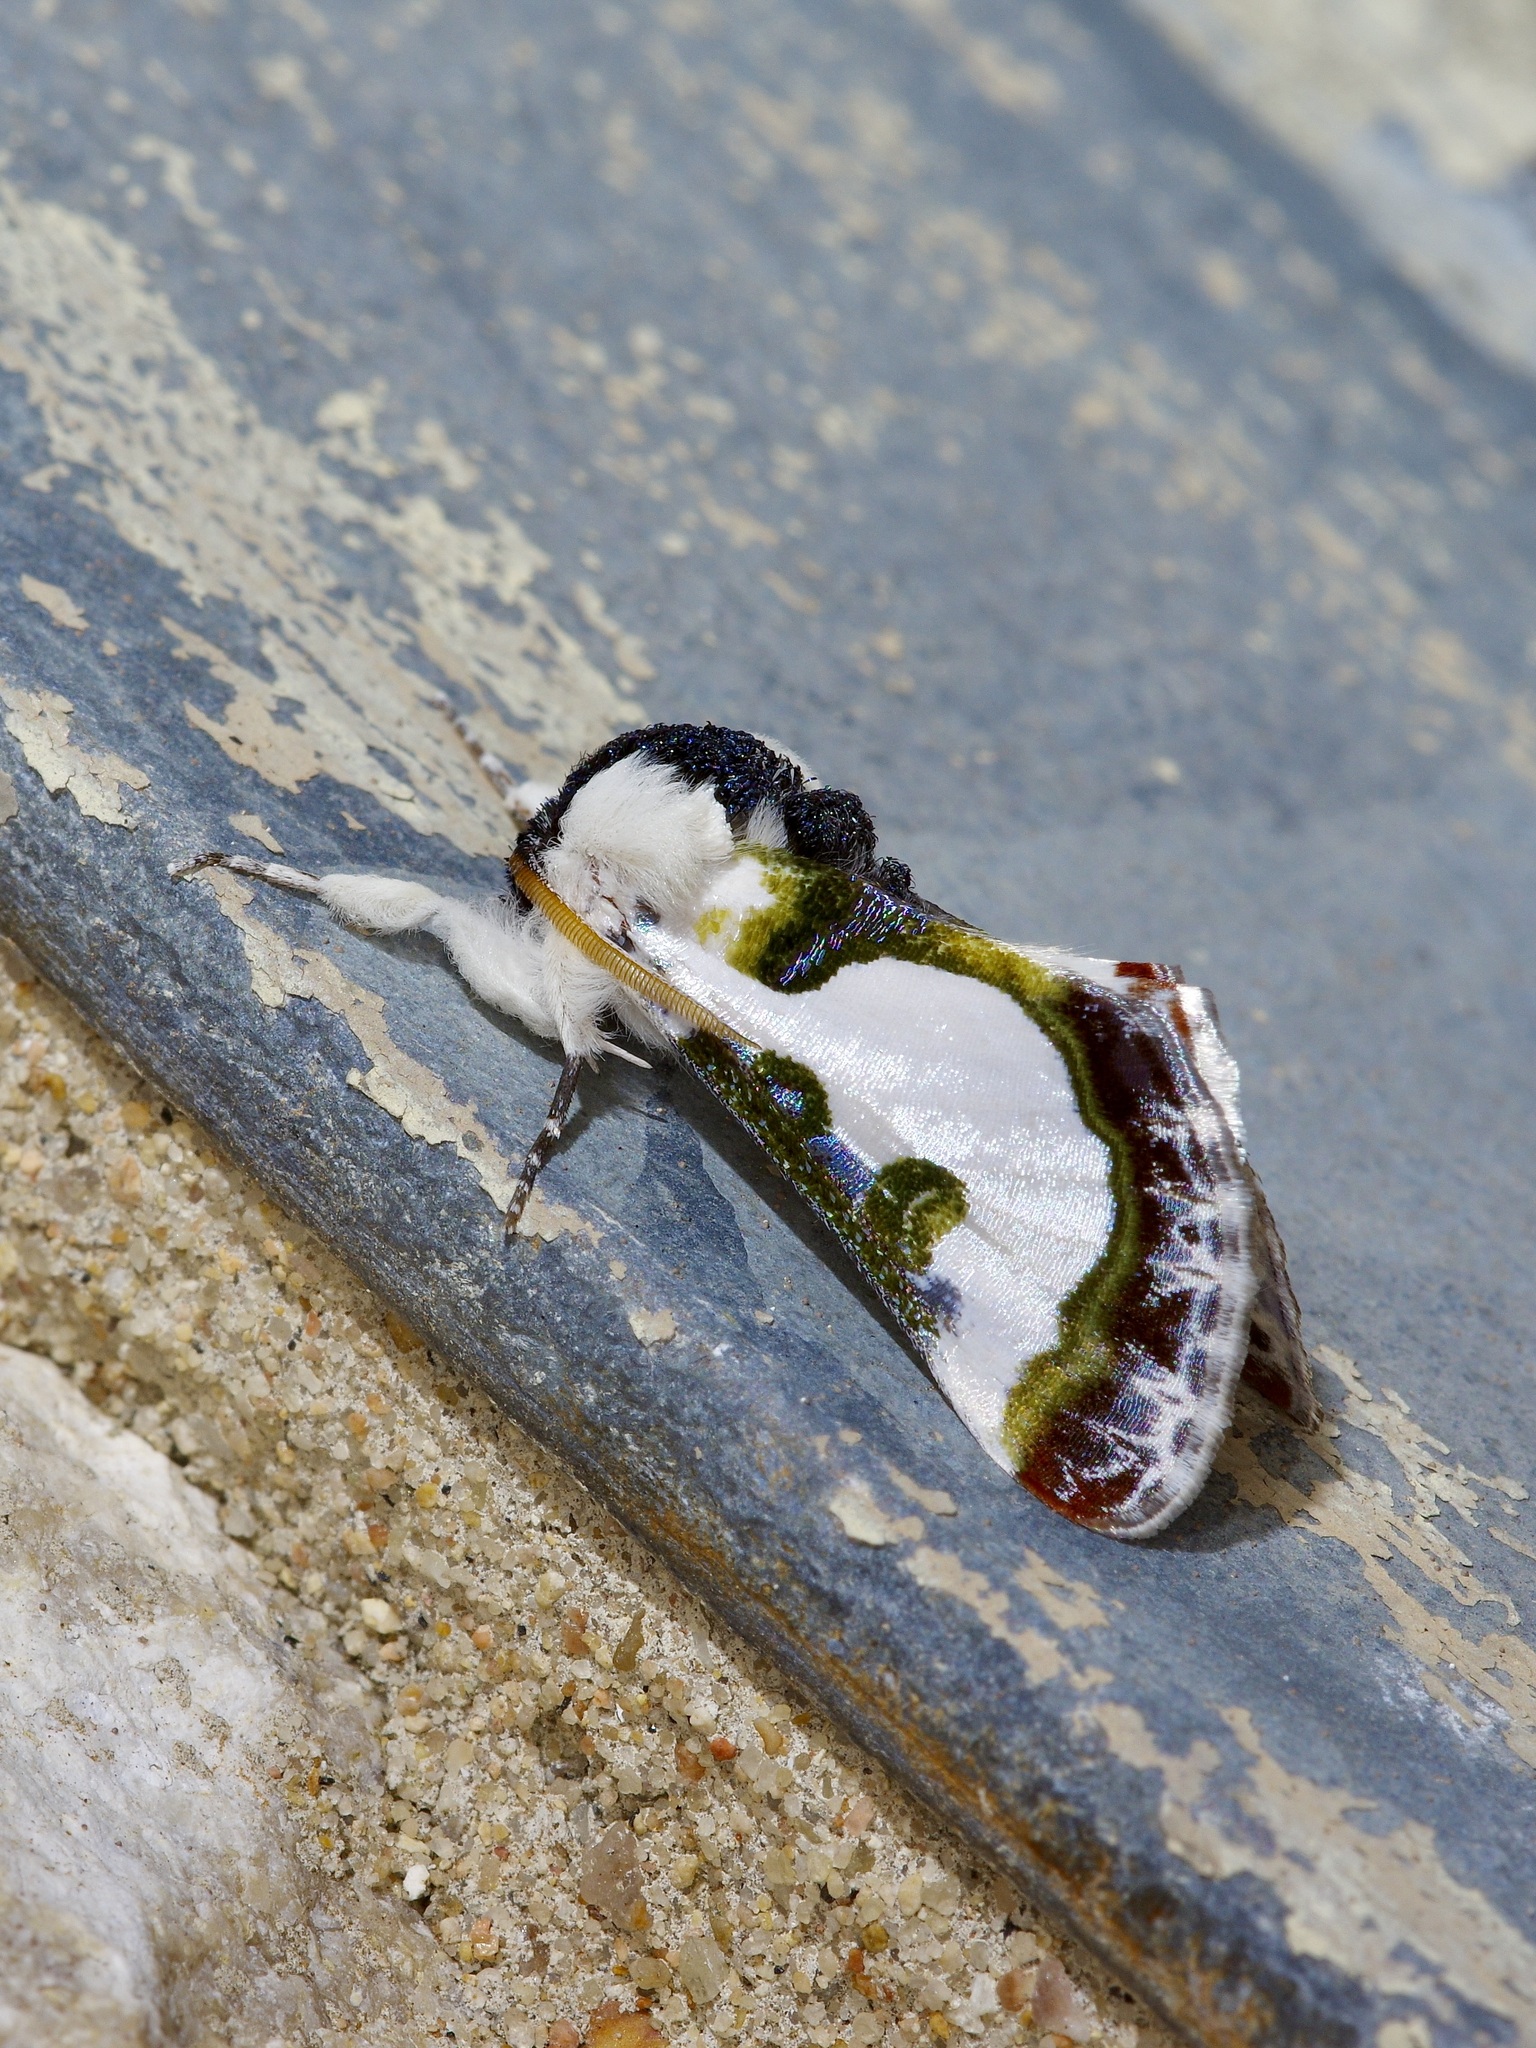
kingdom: Animalia
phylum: Arthropoda
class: Insecta
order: Lepidoptera
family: Noctuidae
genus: Xerociris
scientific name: Xerociris wilsonii
